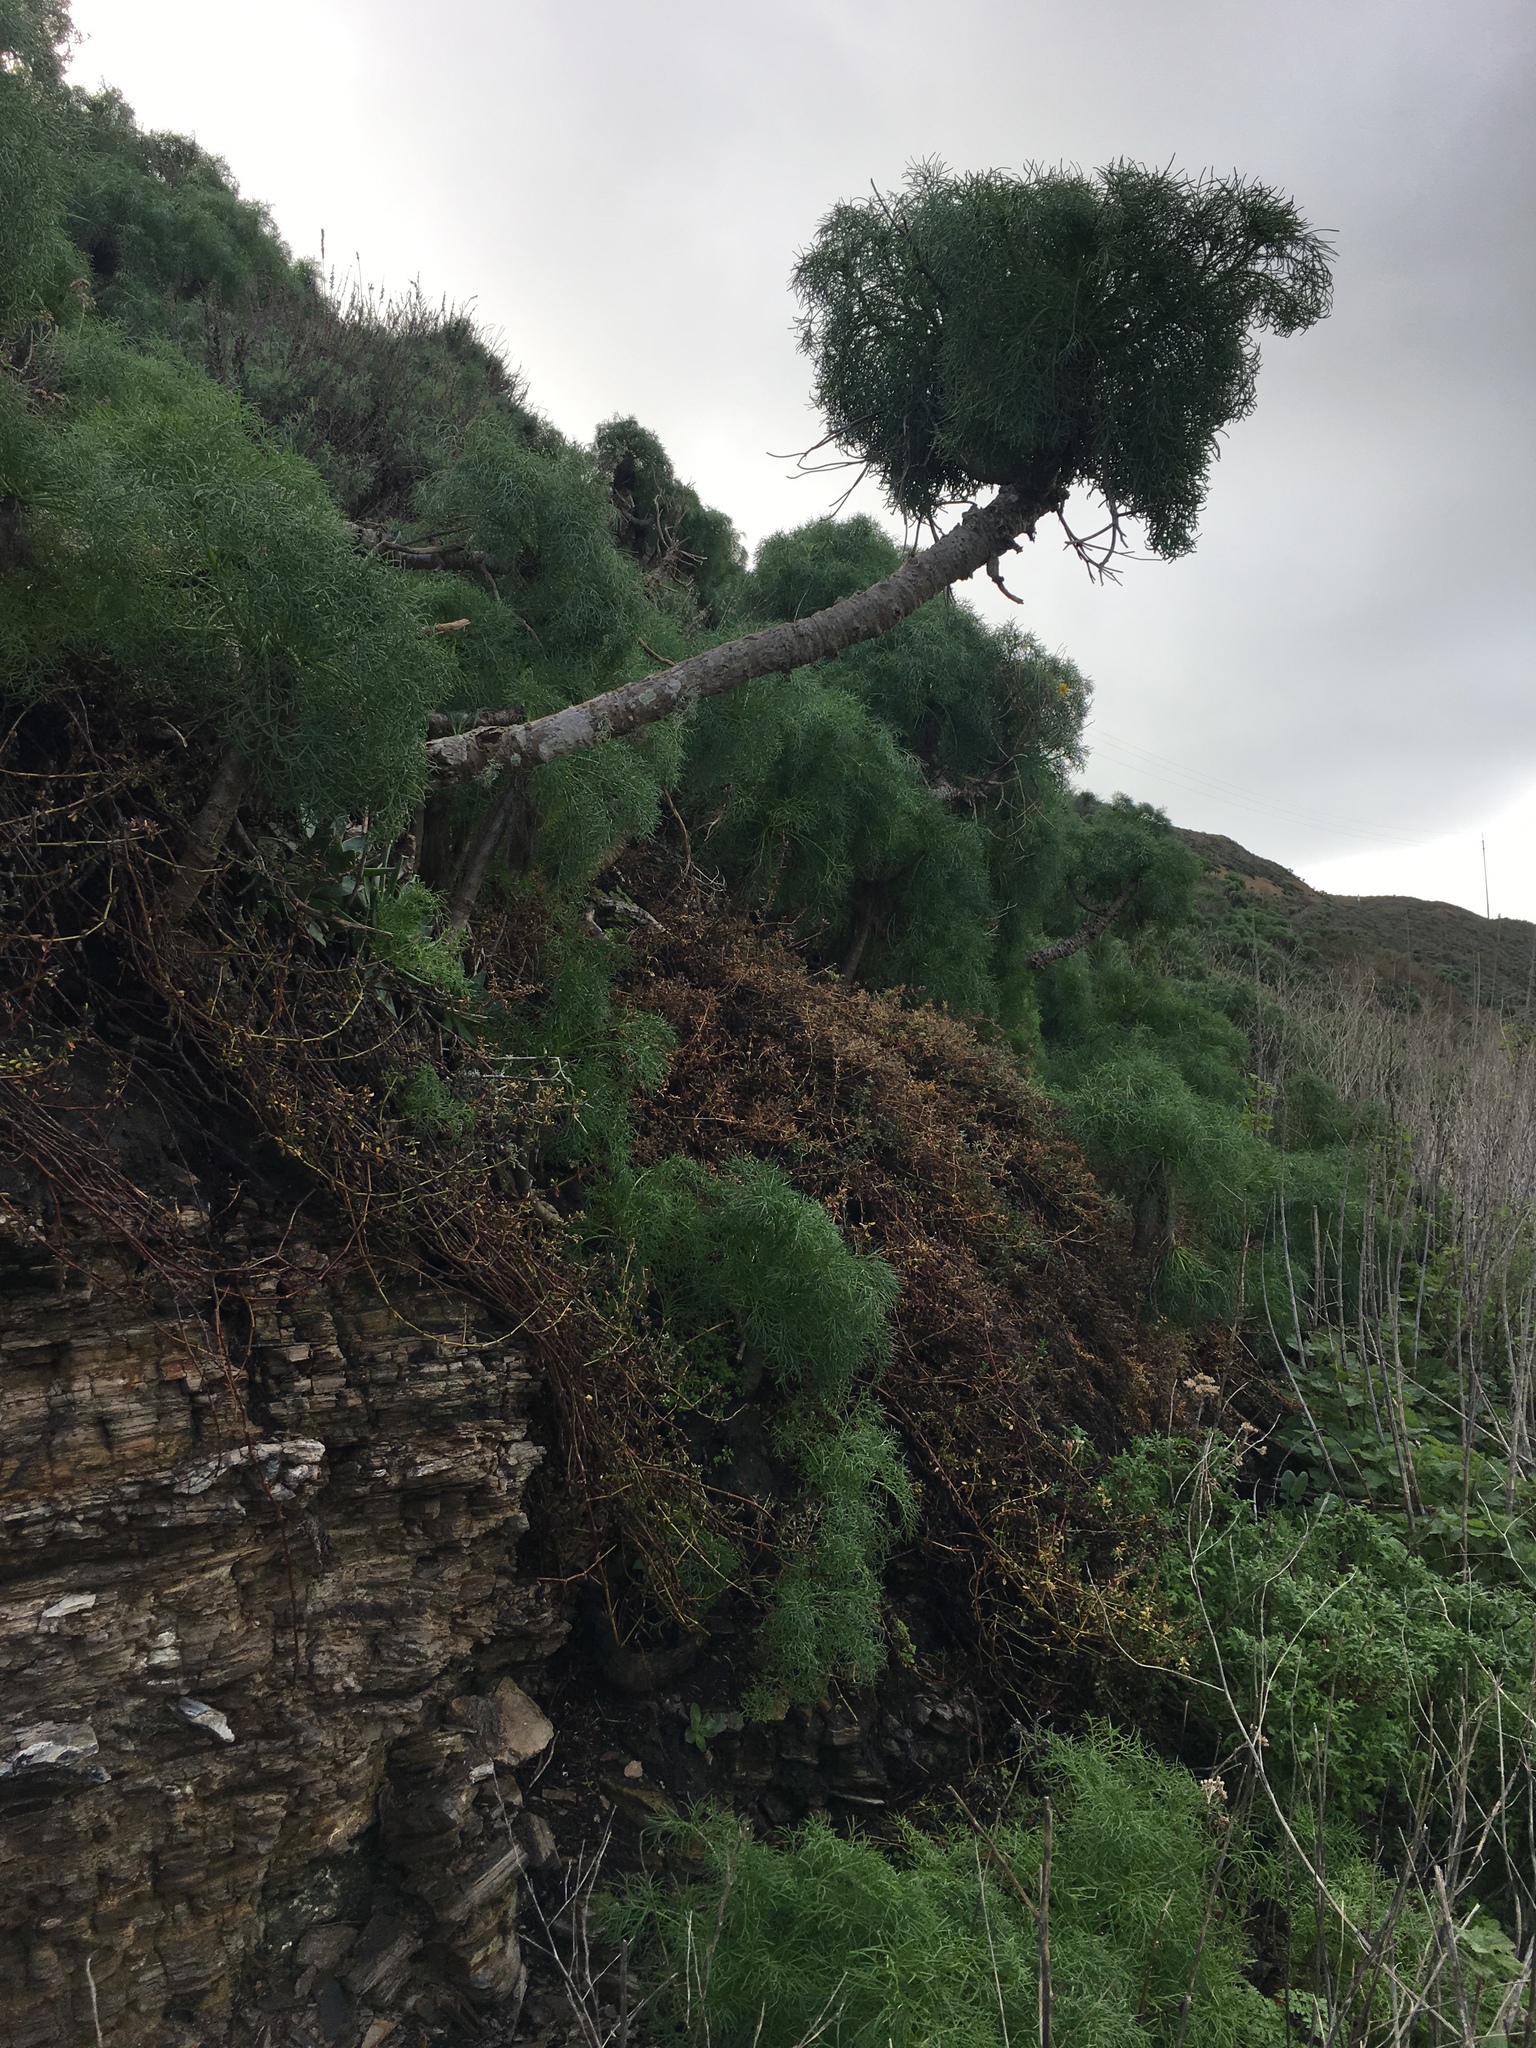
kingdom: Plantae
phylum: Tracheophyta
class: Magnoliopsida
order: Asterales
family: Asteraceae
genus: Coreopsis
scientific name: Coreopsis gigantea
